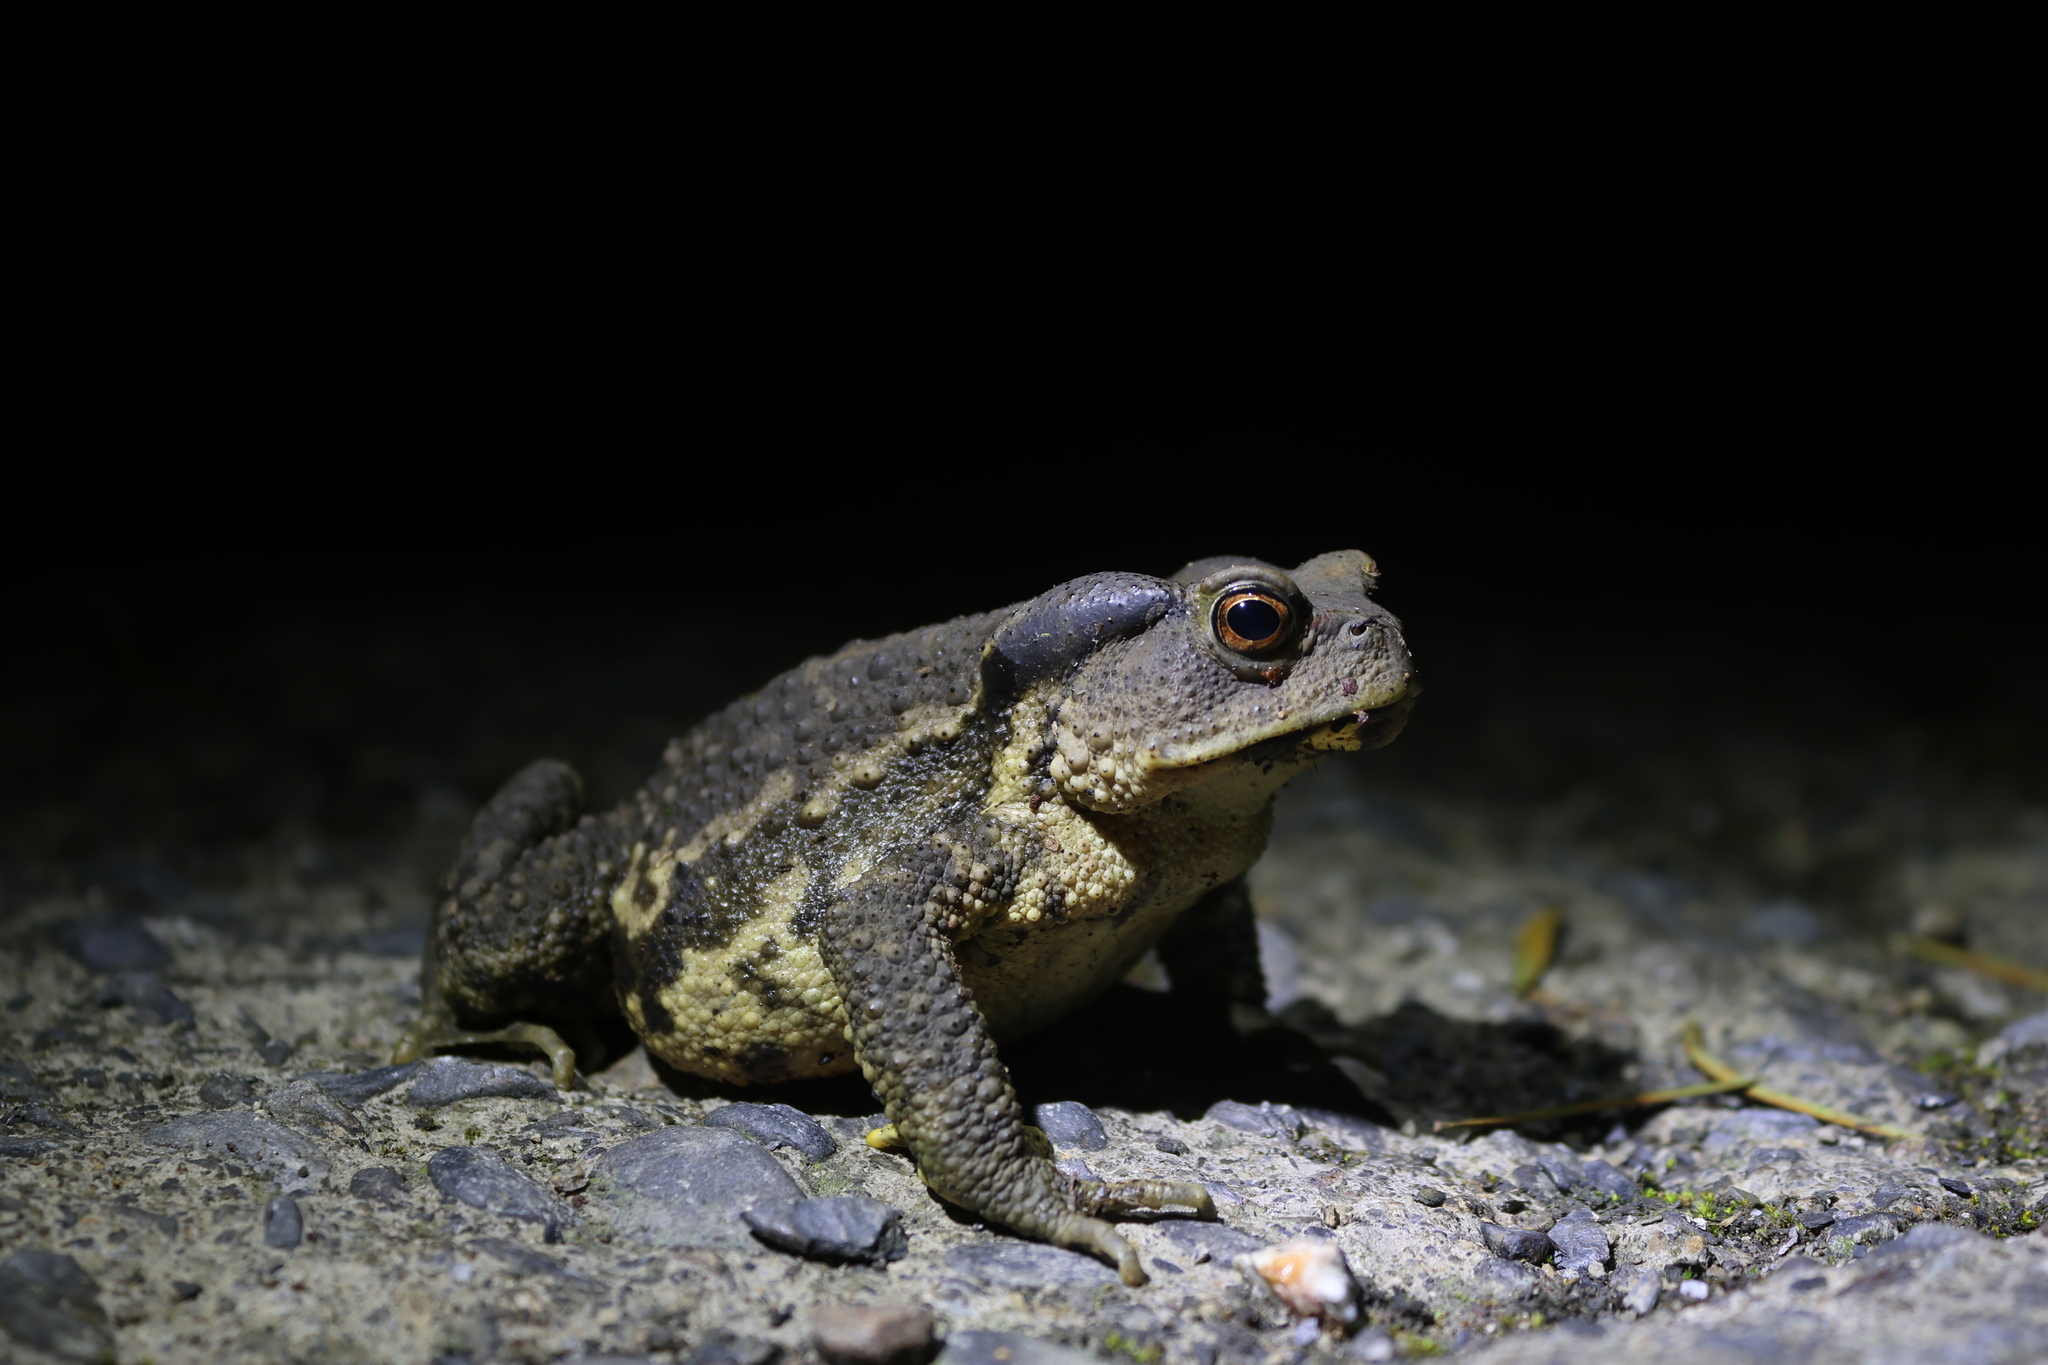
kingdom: Animalia
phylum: Chordata
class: Amphibia
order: Anura
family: Bufonidae
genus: Bufo
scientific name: Bufo bankorensis
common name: Bankor toad
